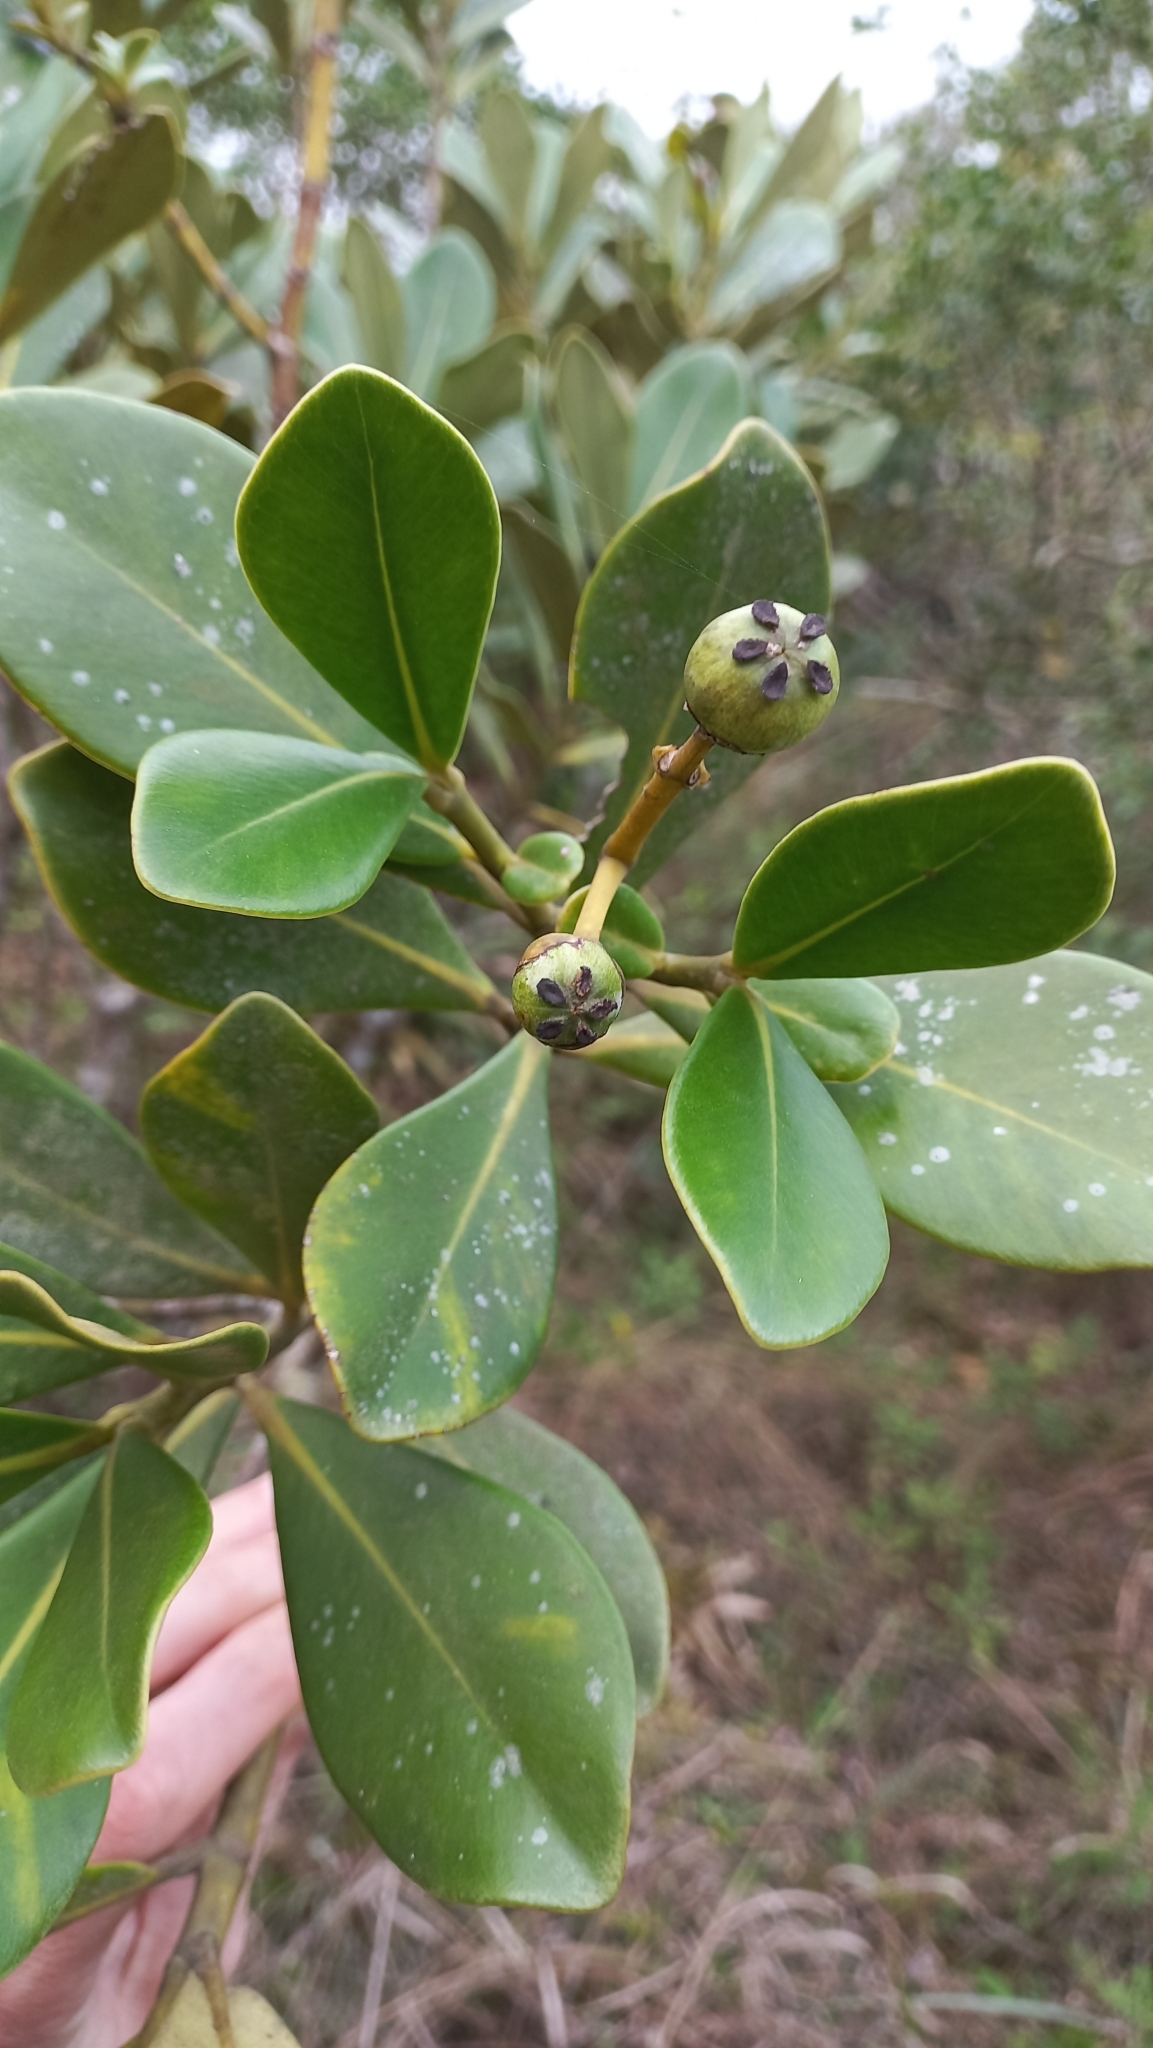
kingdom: Plantae
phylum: Tracheophyta
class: Magnoliopsida
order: Malpighiales
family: Clusiaceae
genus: Clusia
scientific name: Clusia criuva
